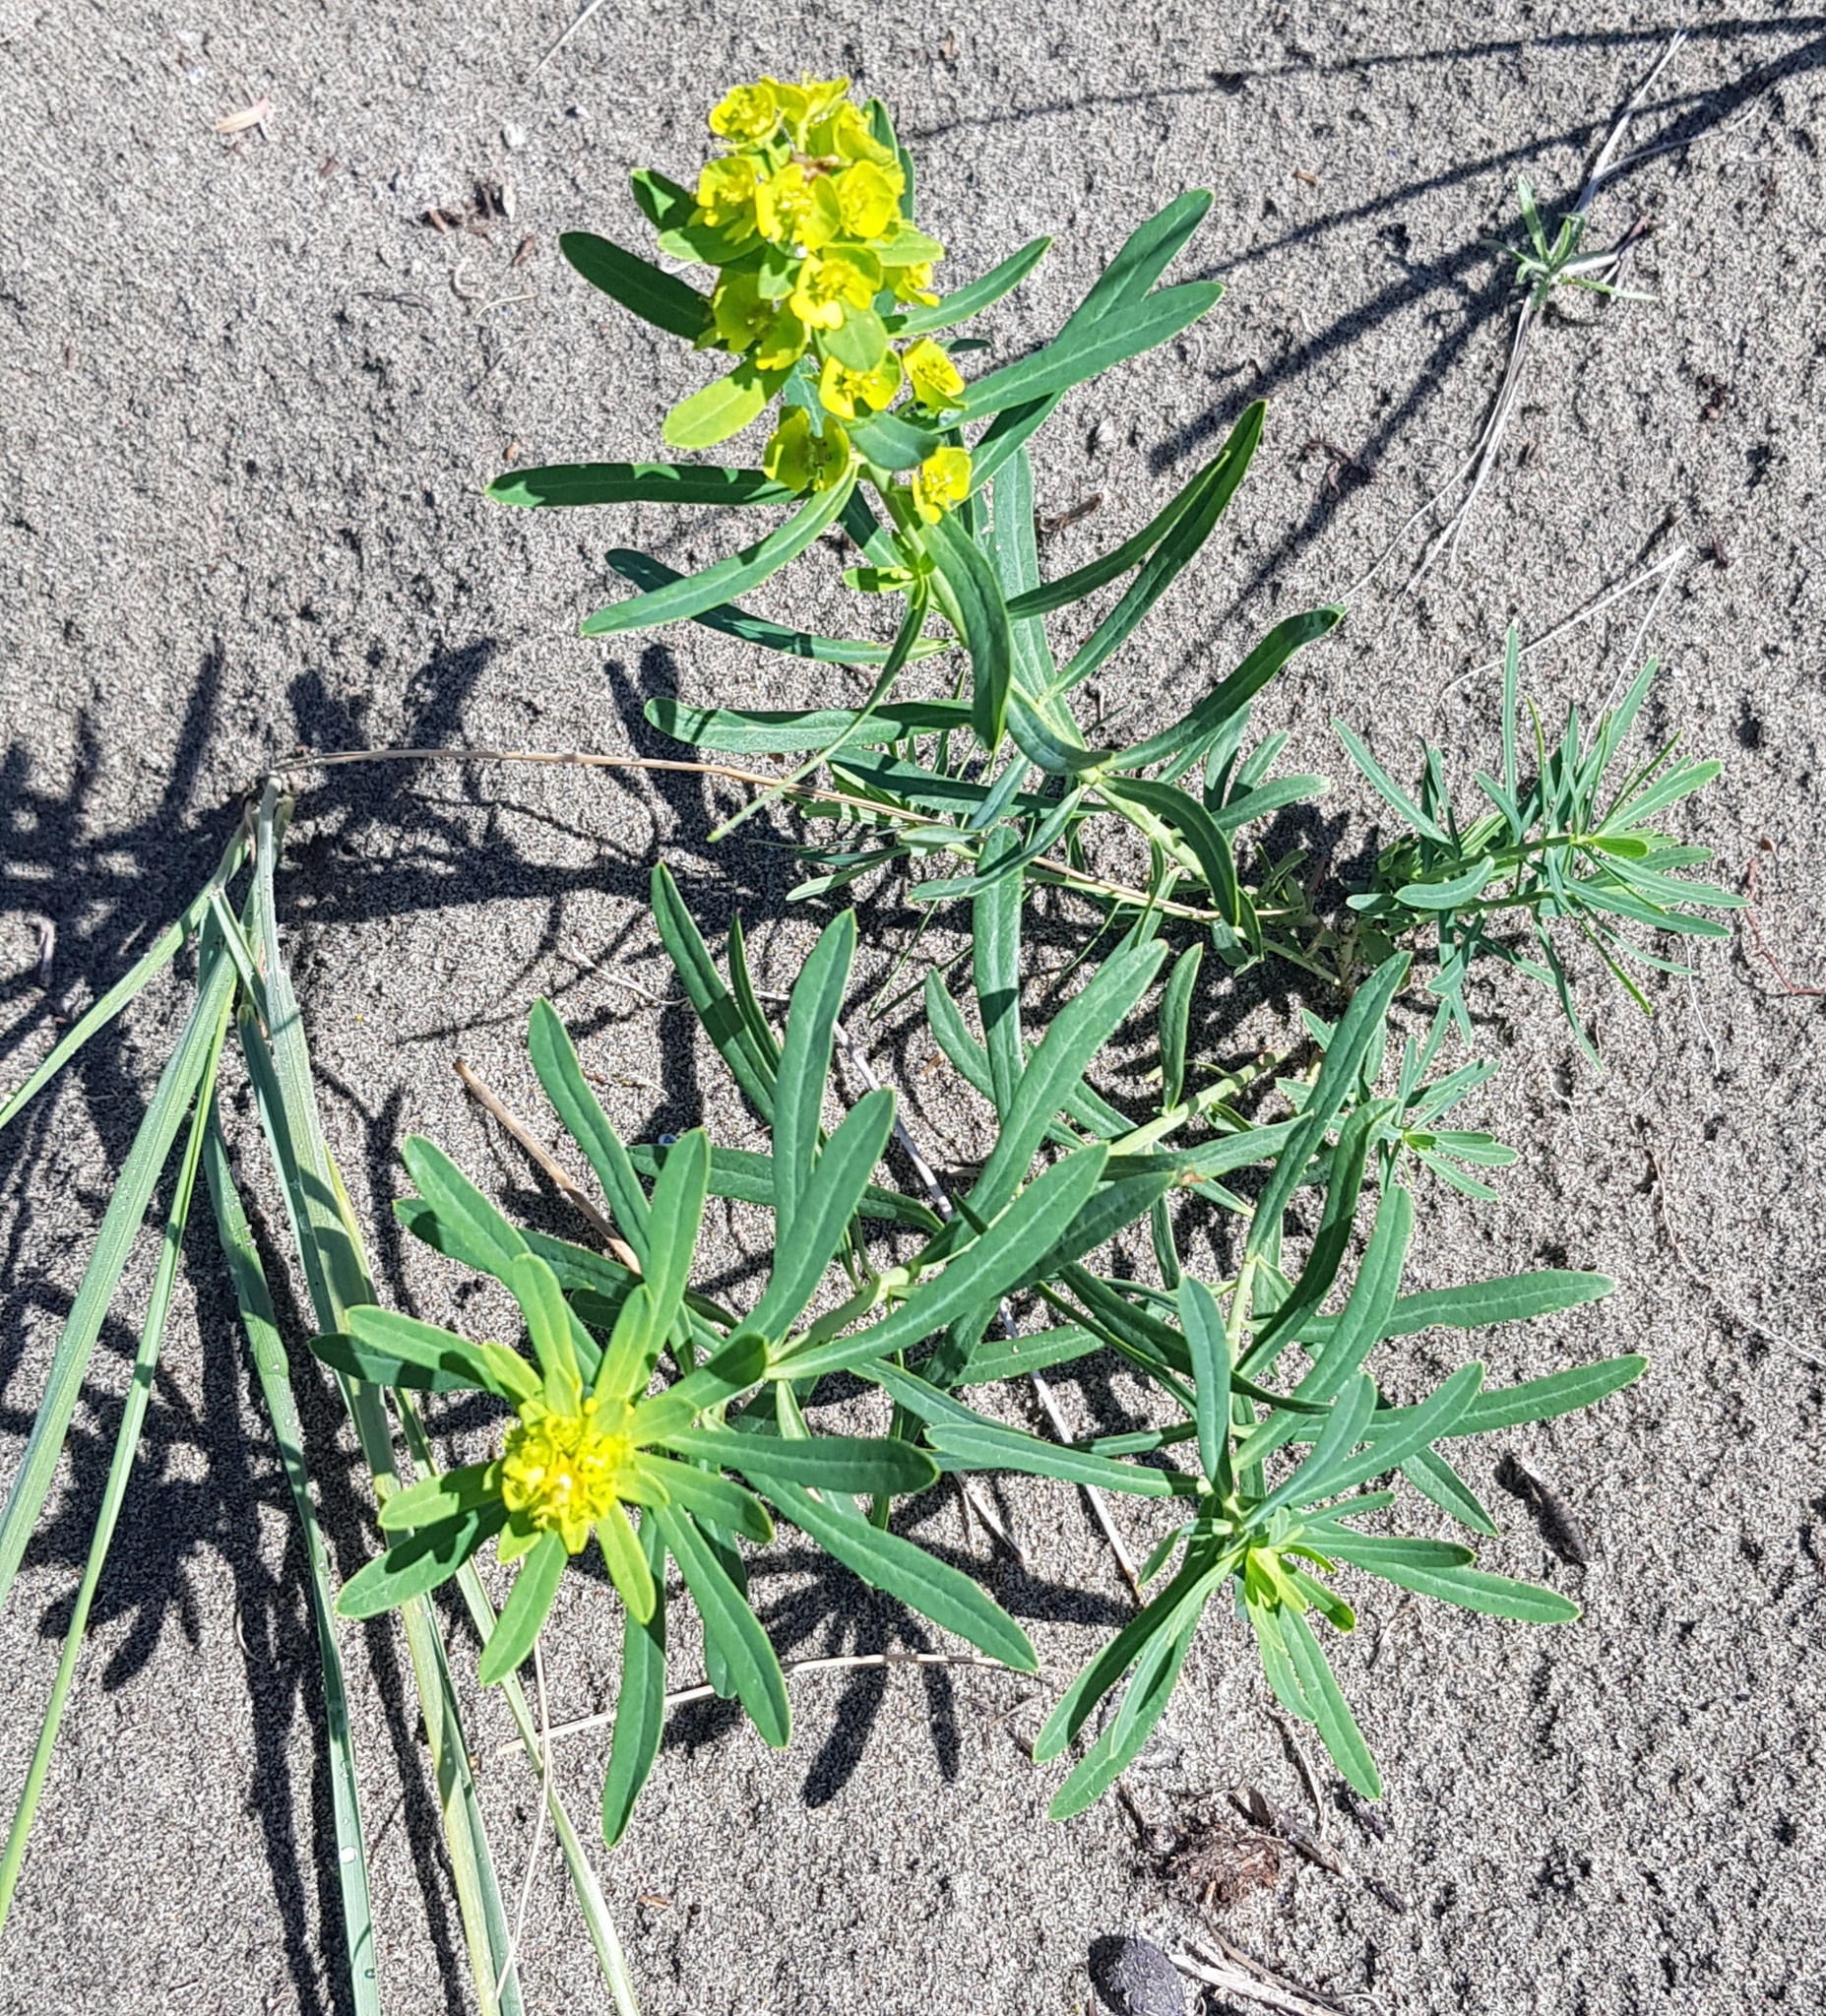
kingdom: Plantae
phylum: Tracheophyta
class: Magnoliopsida
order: Malpighiales
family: Euphorbiaceae
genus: Euphorbia
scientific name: Euphorbia esula
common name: Leafy spurge
